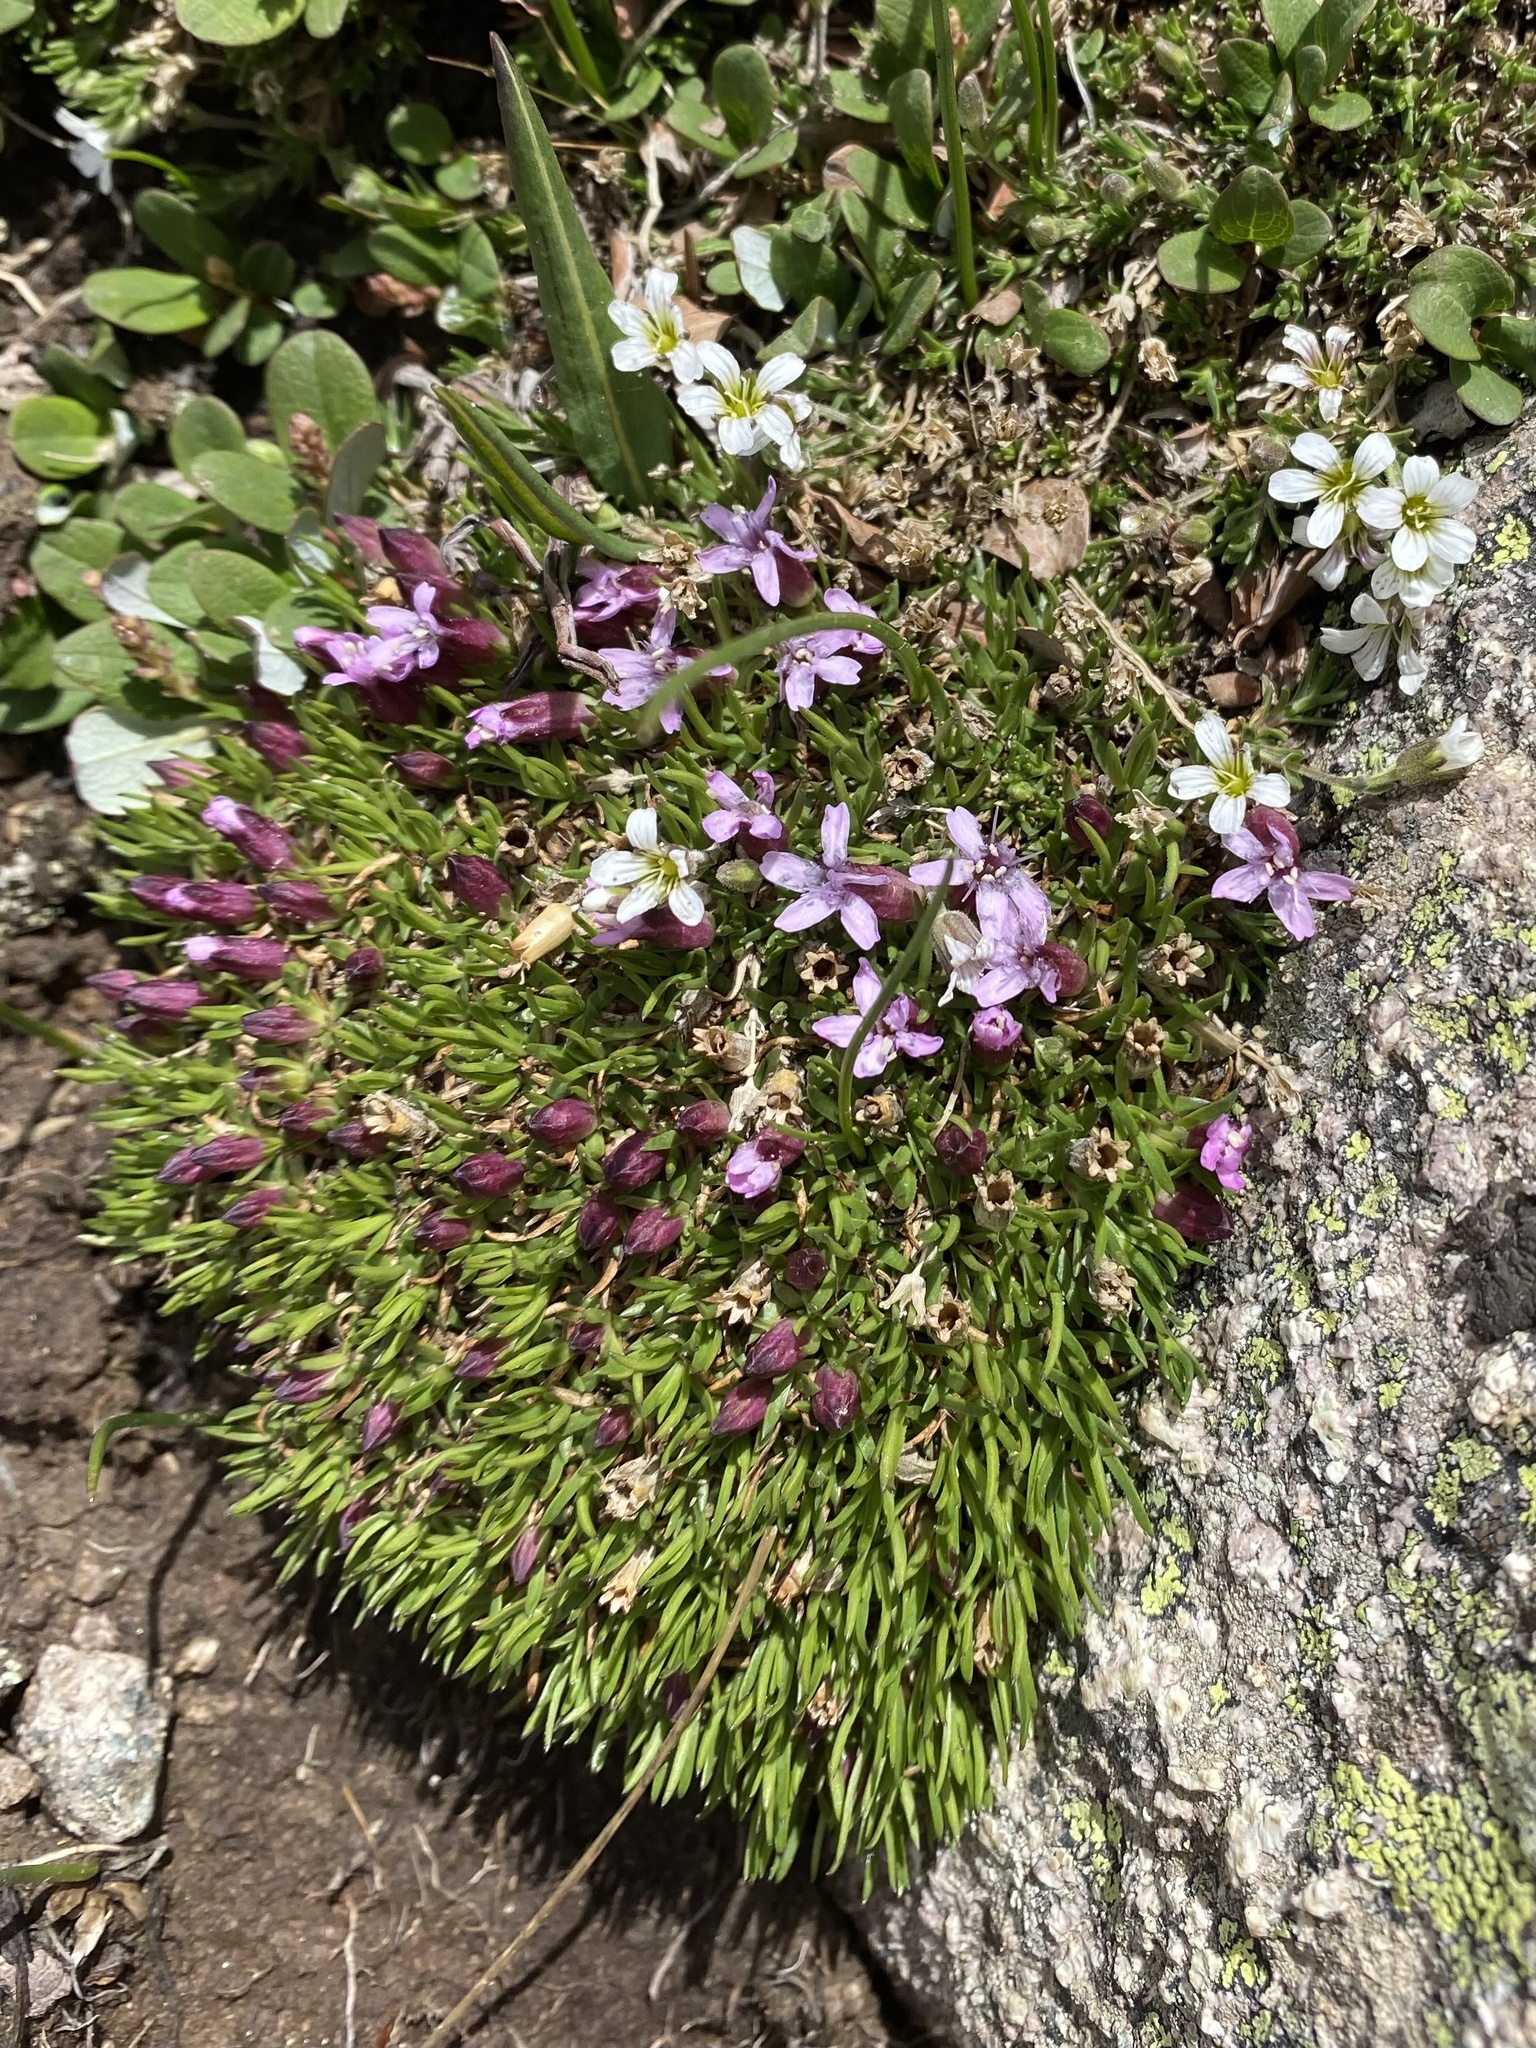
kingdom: Plantae
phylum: Tracheophyta
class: Magnoliopsida
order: Caryophyllales
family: Caryophyllaceae
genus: Silene
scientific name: Silene acaulis
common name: Moss campion
